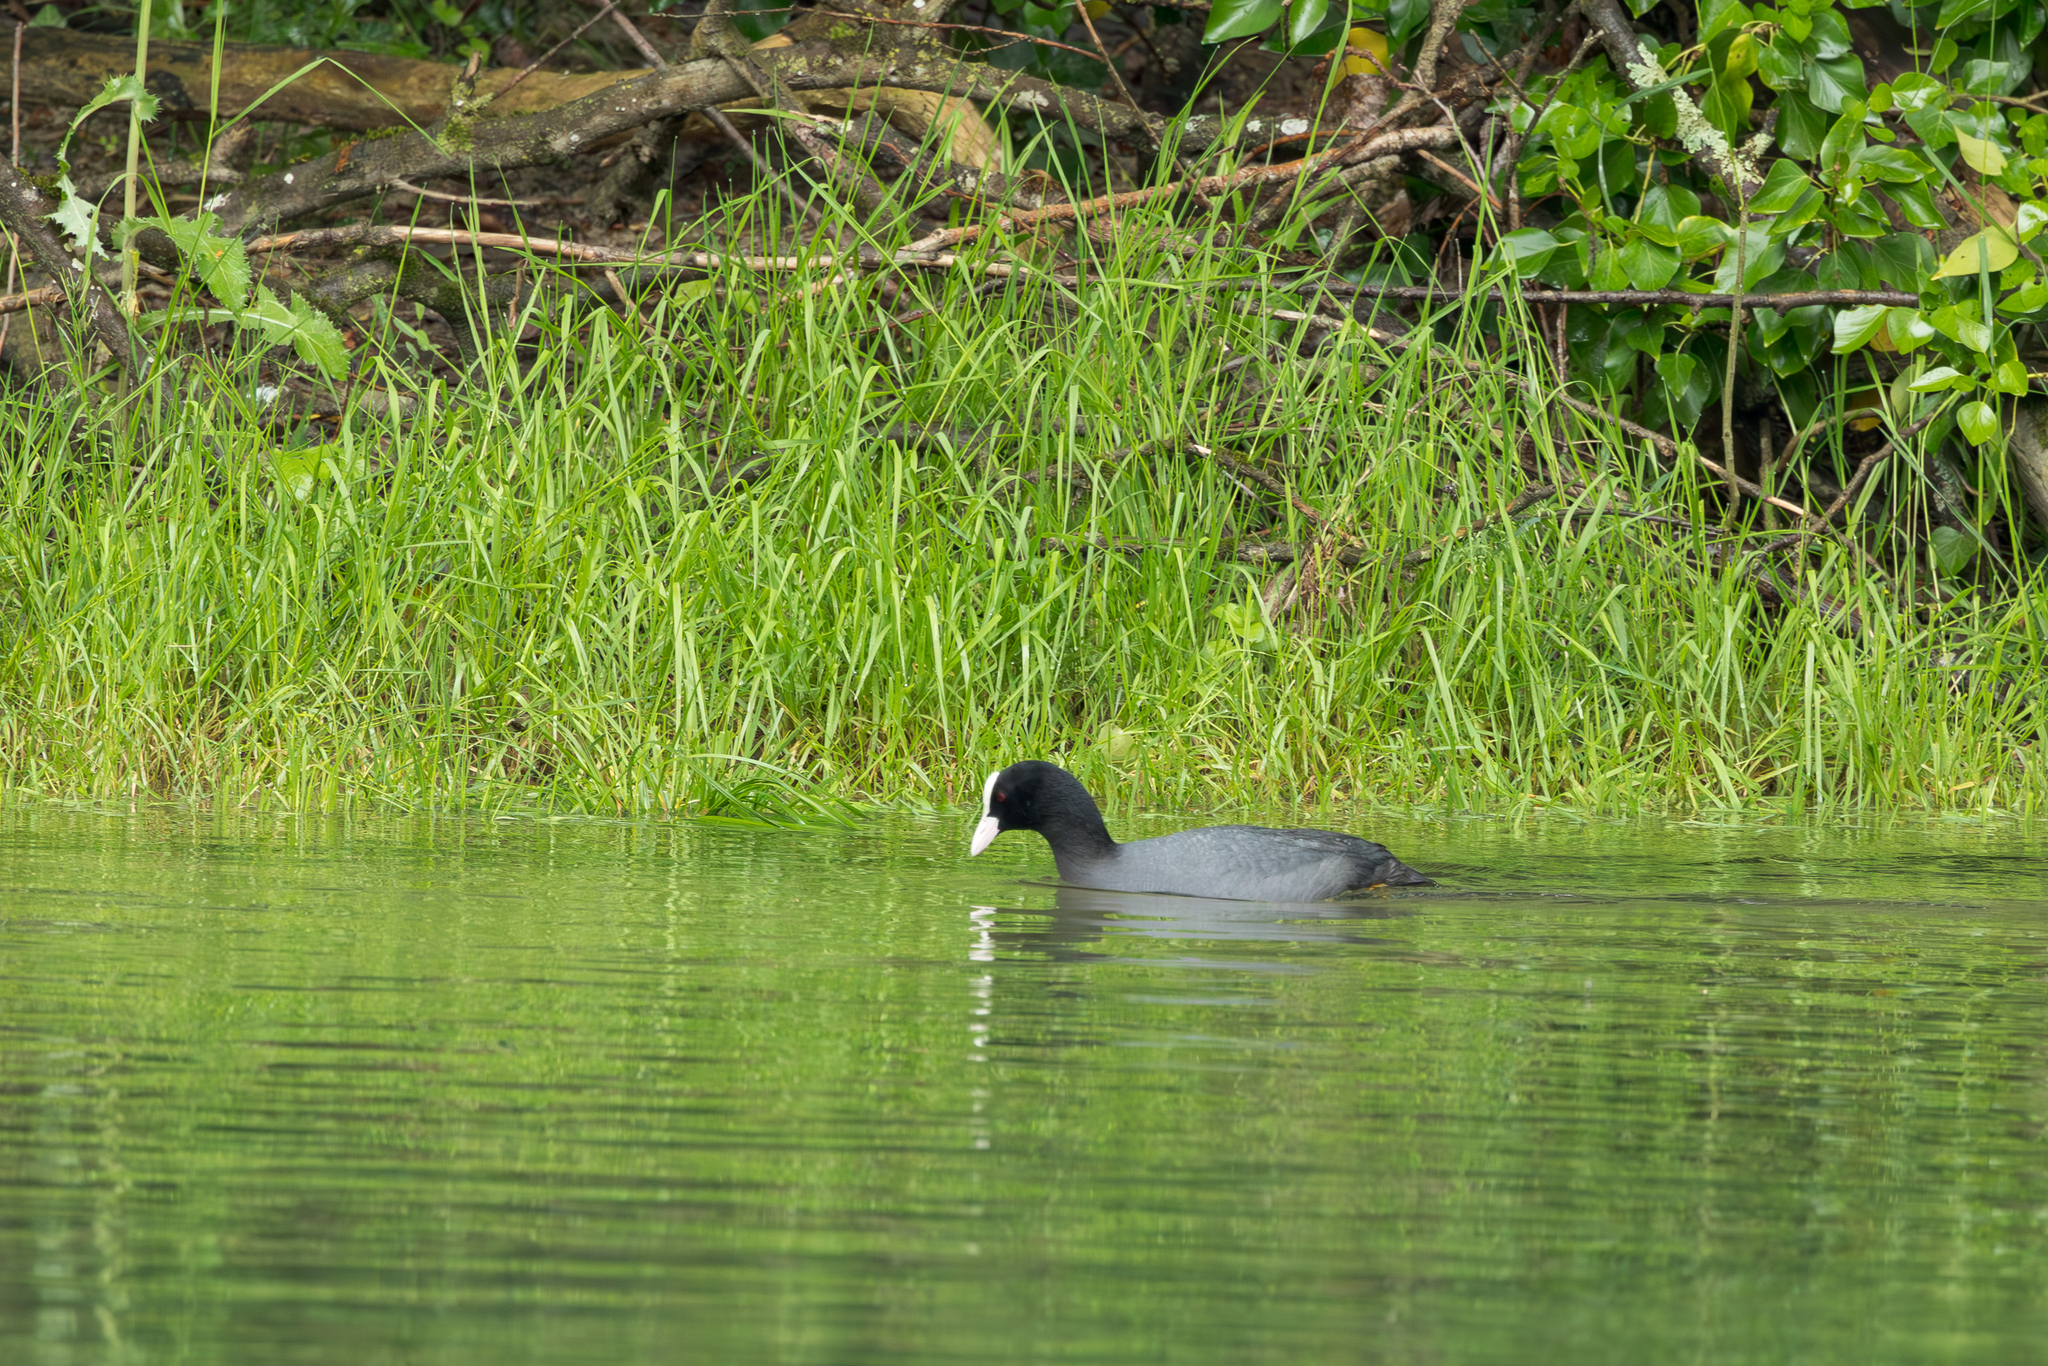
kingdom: Animalia
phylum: Chordata
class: Aves
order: Gruiformes
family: Rallidae
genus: Fulica
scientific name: Fulica atra
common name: Eurasian coot
